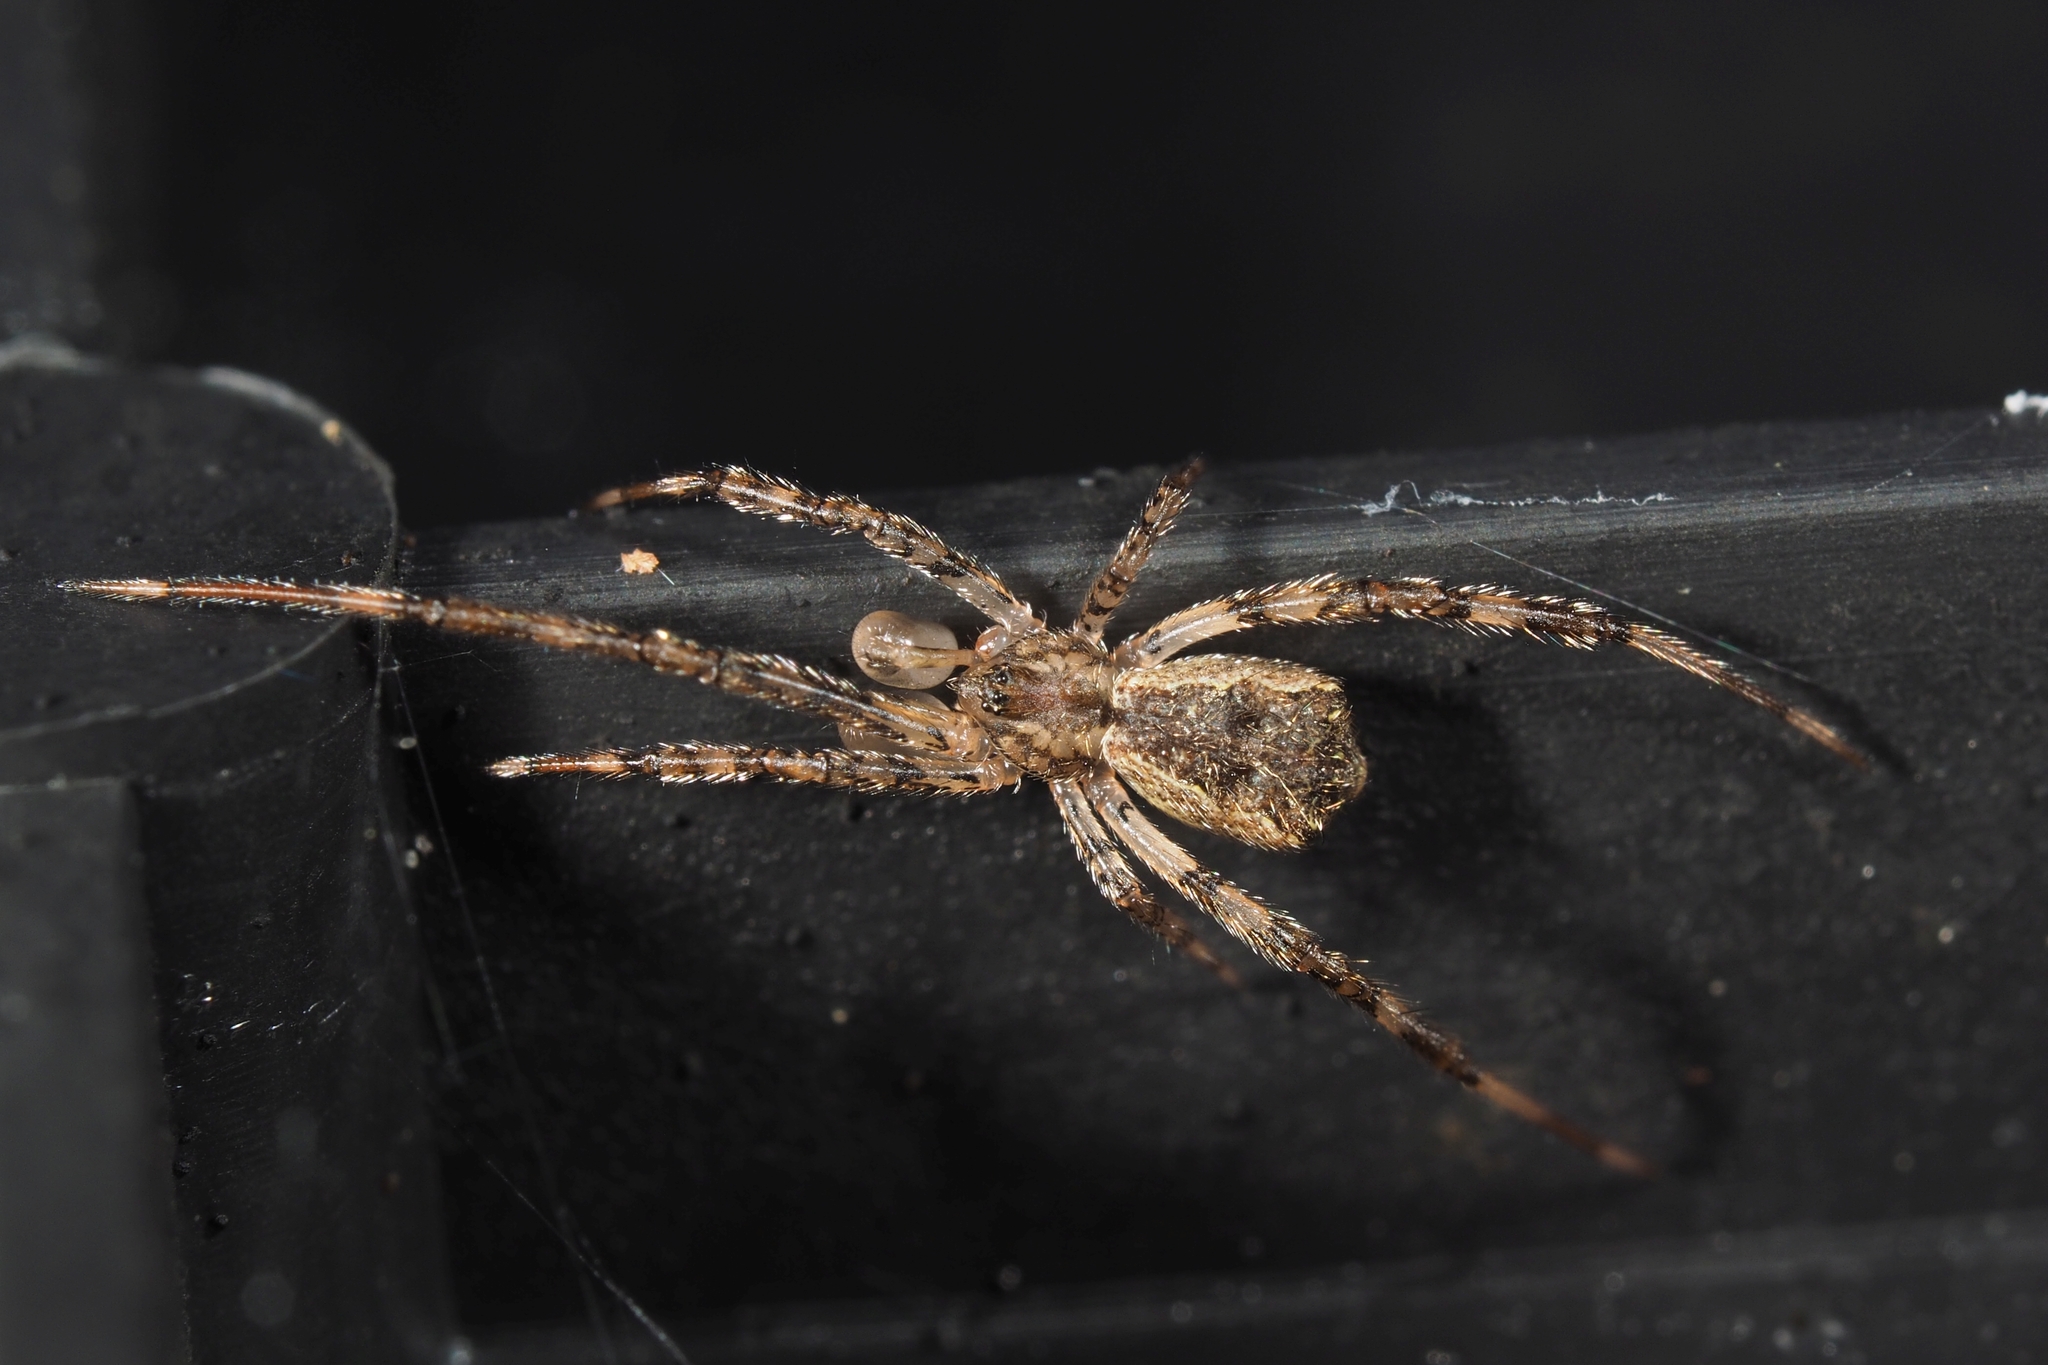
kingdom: Animalia
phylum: Arthropoda
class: Arachnida
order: Araneae
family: Theridiidae
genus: Episinus
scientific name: Episinus maculipes
